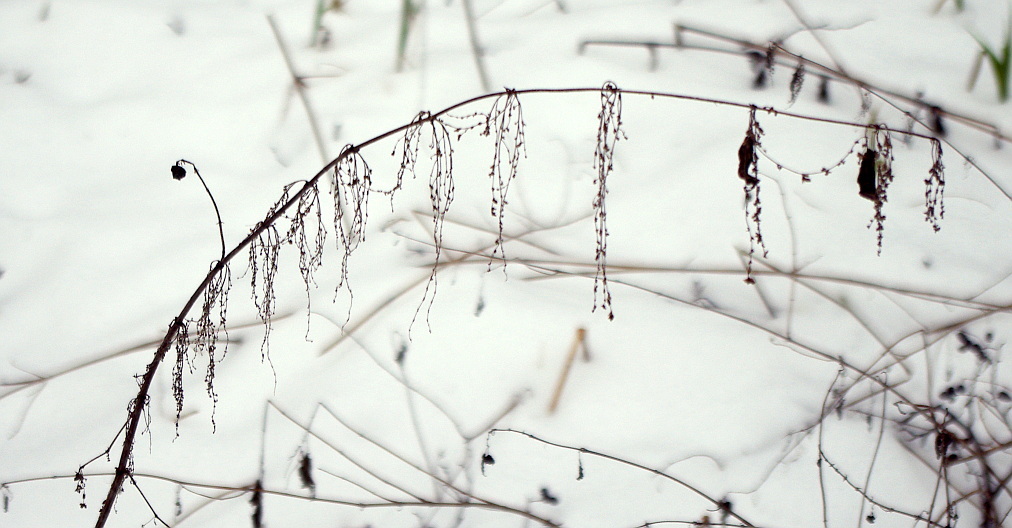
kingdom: Plantae
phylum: Tracheophyta
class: Magnoliopsida
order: Rosales
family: Urticaceae
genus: Urtica
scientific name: Urtica dioica
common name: Common nettle
